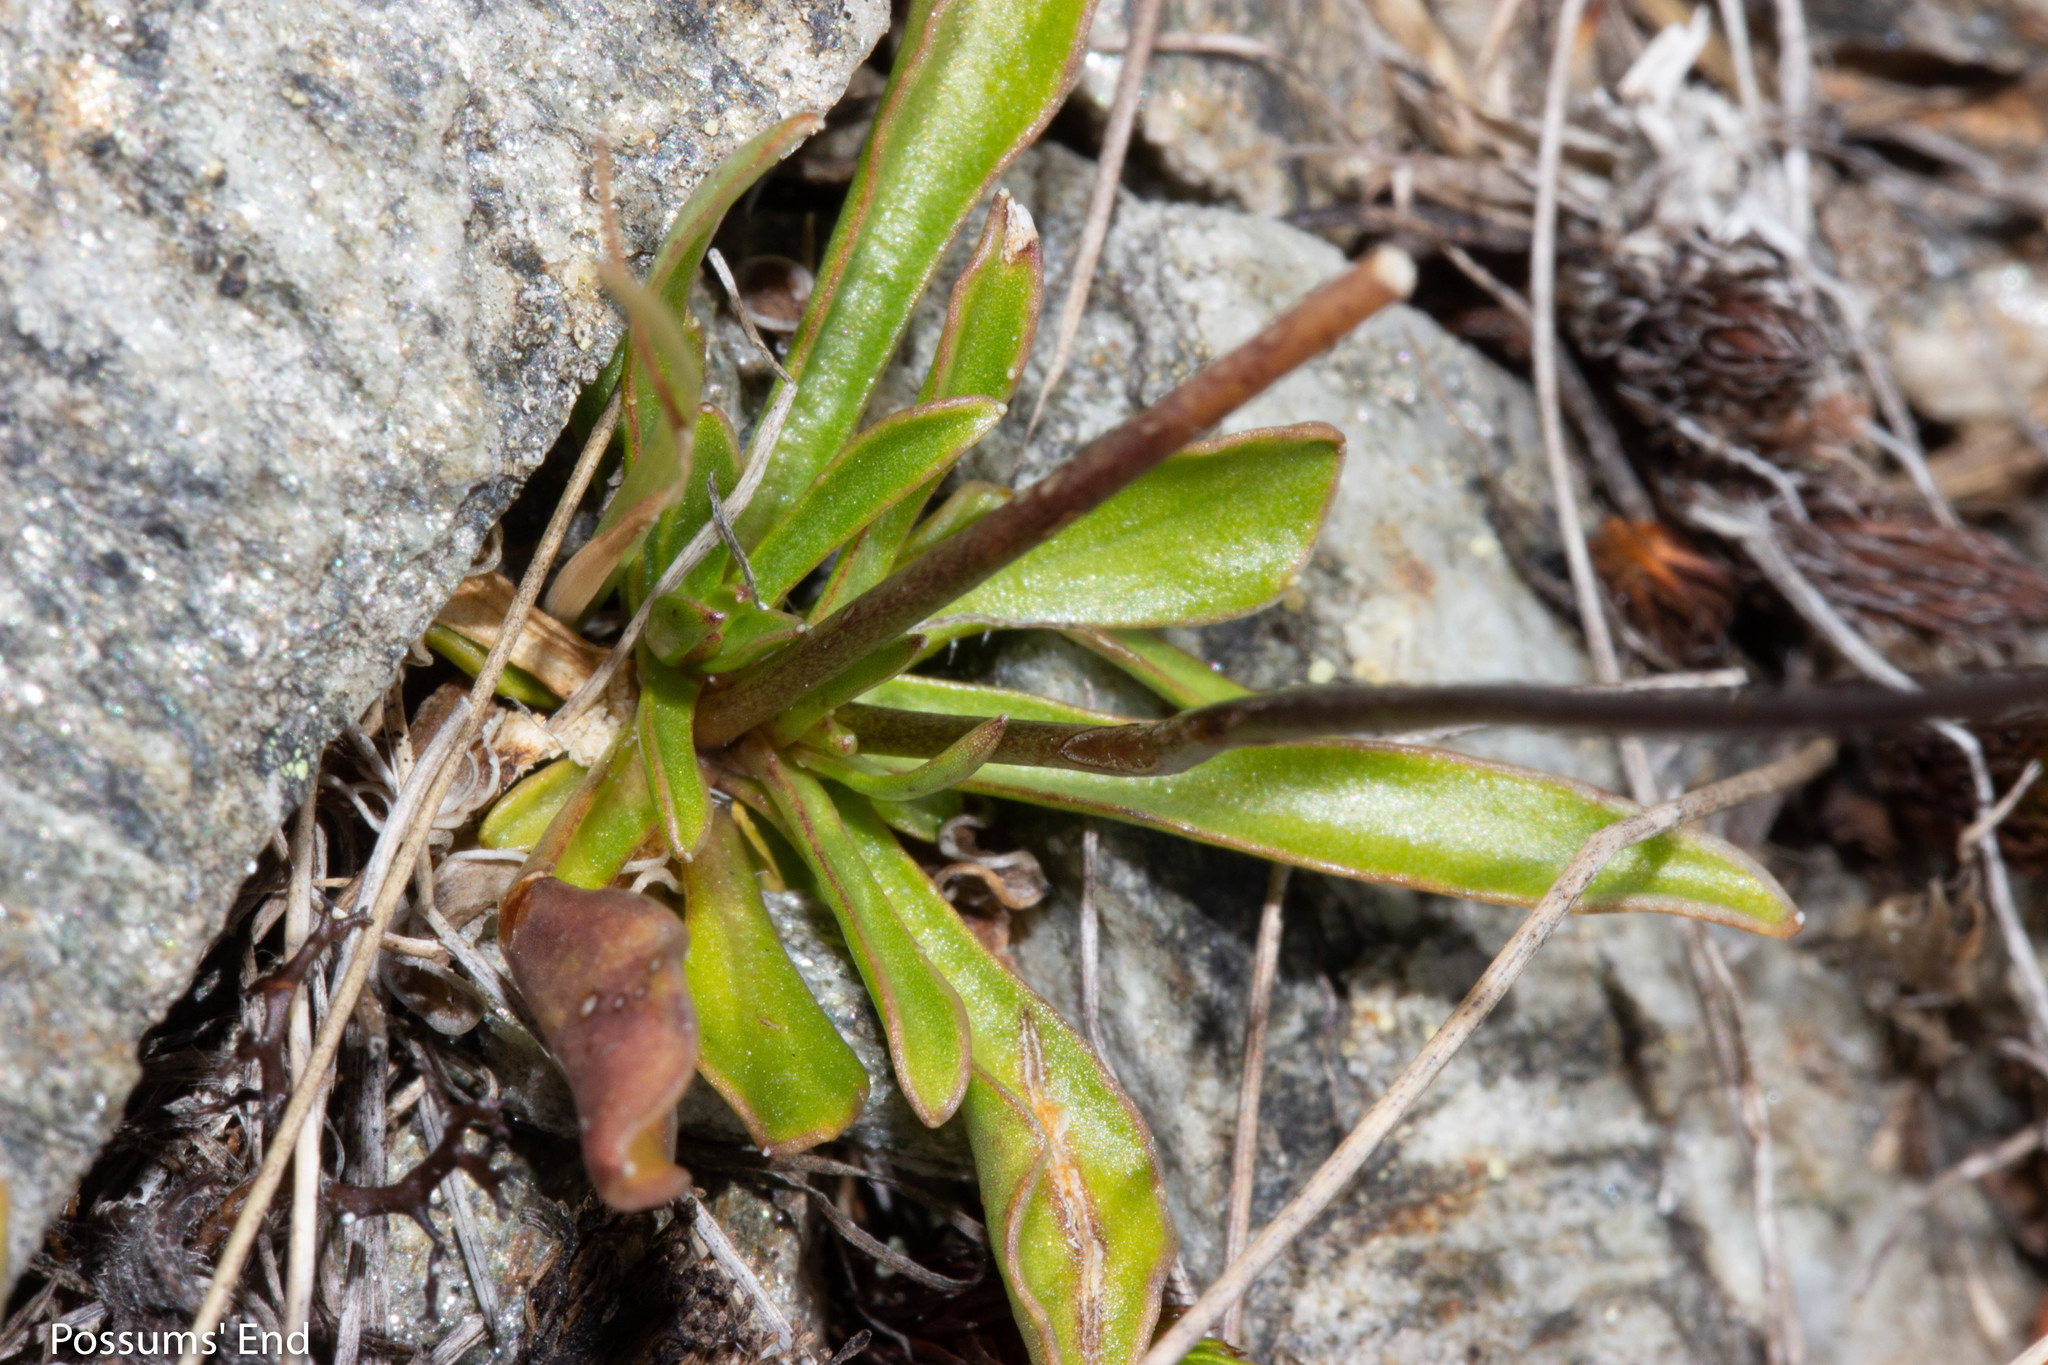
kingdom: Plantae
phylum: Tracheophyta
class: Magnoliopsida
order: Asterales
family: Campanulaceae
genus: Wahlenbergia
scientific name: Wahlenbergia albomarginata
